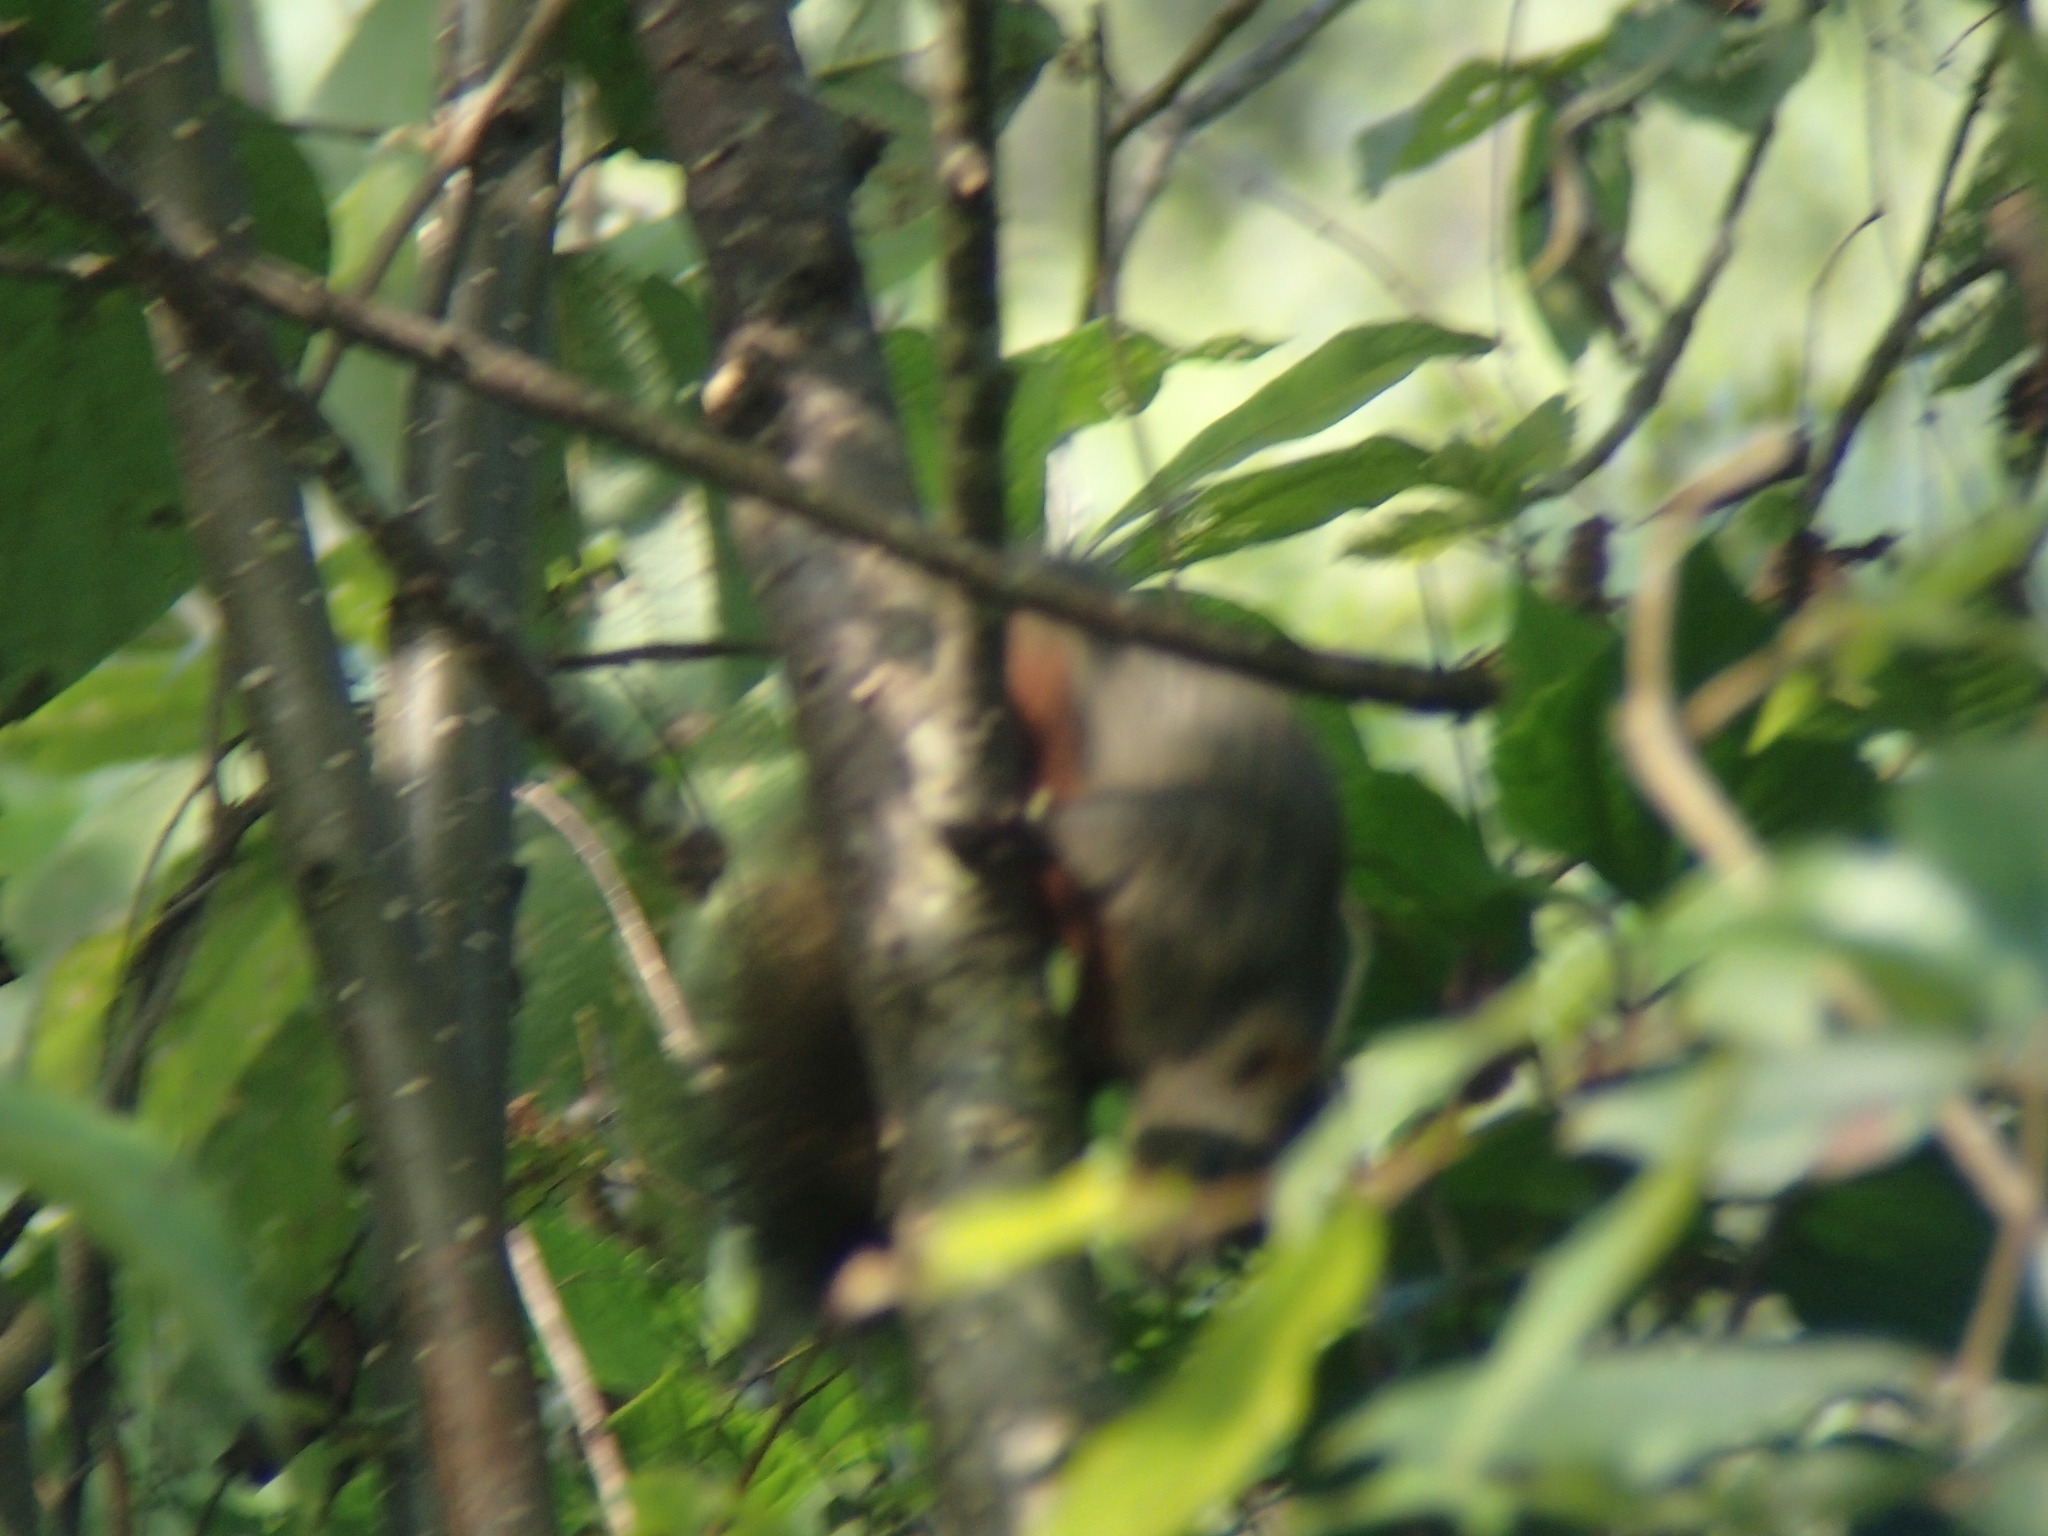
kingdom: Animalia
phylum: Chordata
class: Mammalia
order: Rodentia
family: Sciuridae
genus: Callosciurus
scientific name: Callosciurus erythraeus
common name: Pallas's squirrel
